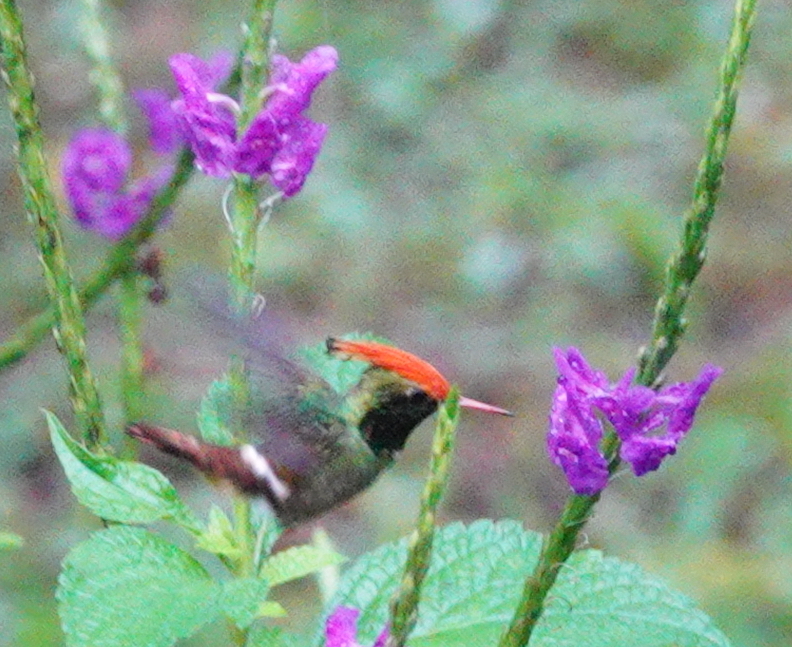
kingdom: Animalia
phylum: Chordata
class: Aves
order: Apodiformes
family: Trochilidae
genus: Lophornis
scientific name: Lophornis delattrei
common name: Rufous-crested coquette
